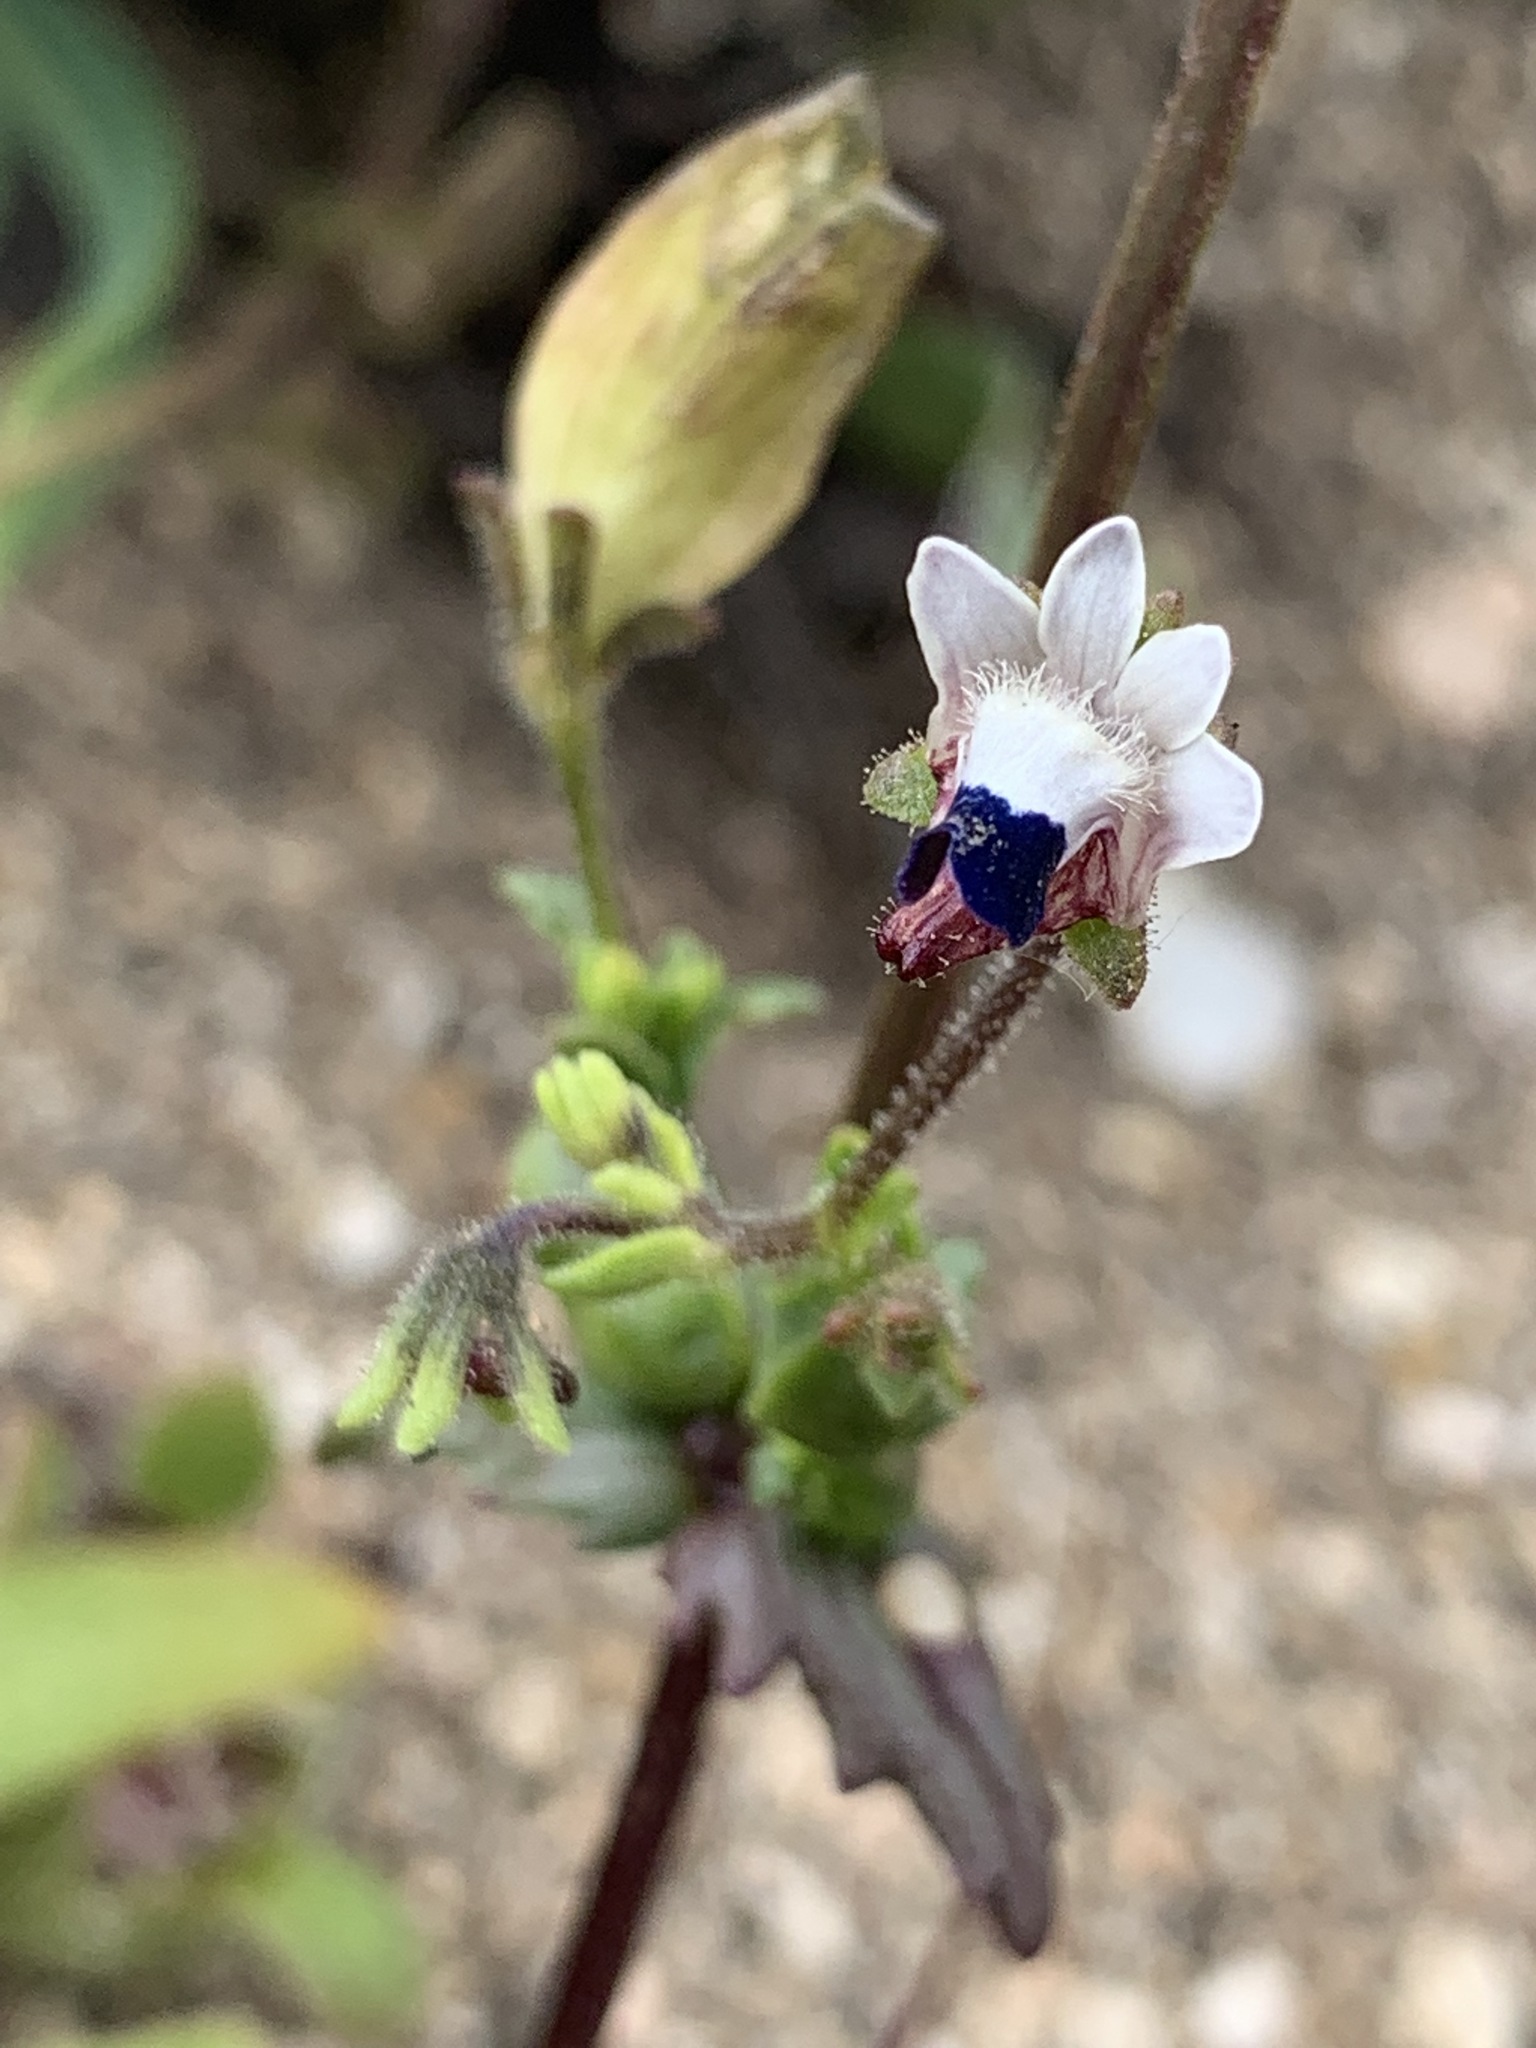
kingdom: Plantae
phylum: Tracheophyta
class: Magnoliopsida
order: Lamiales
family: Scrophulariaceae
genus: Nemesia
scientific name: Nemesia barbata
